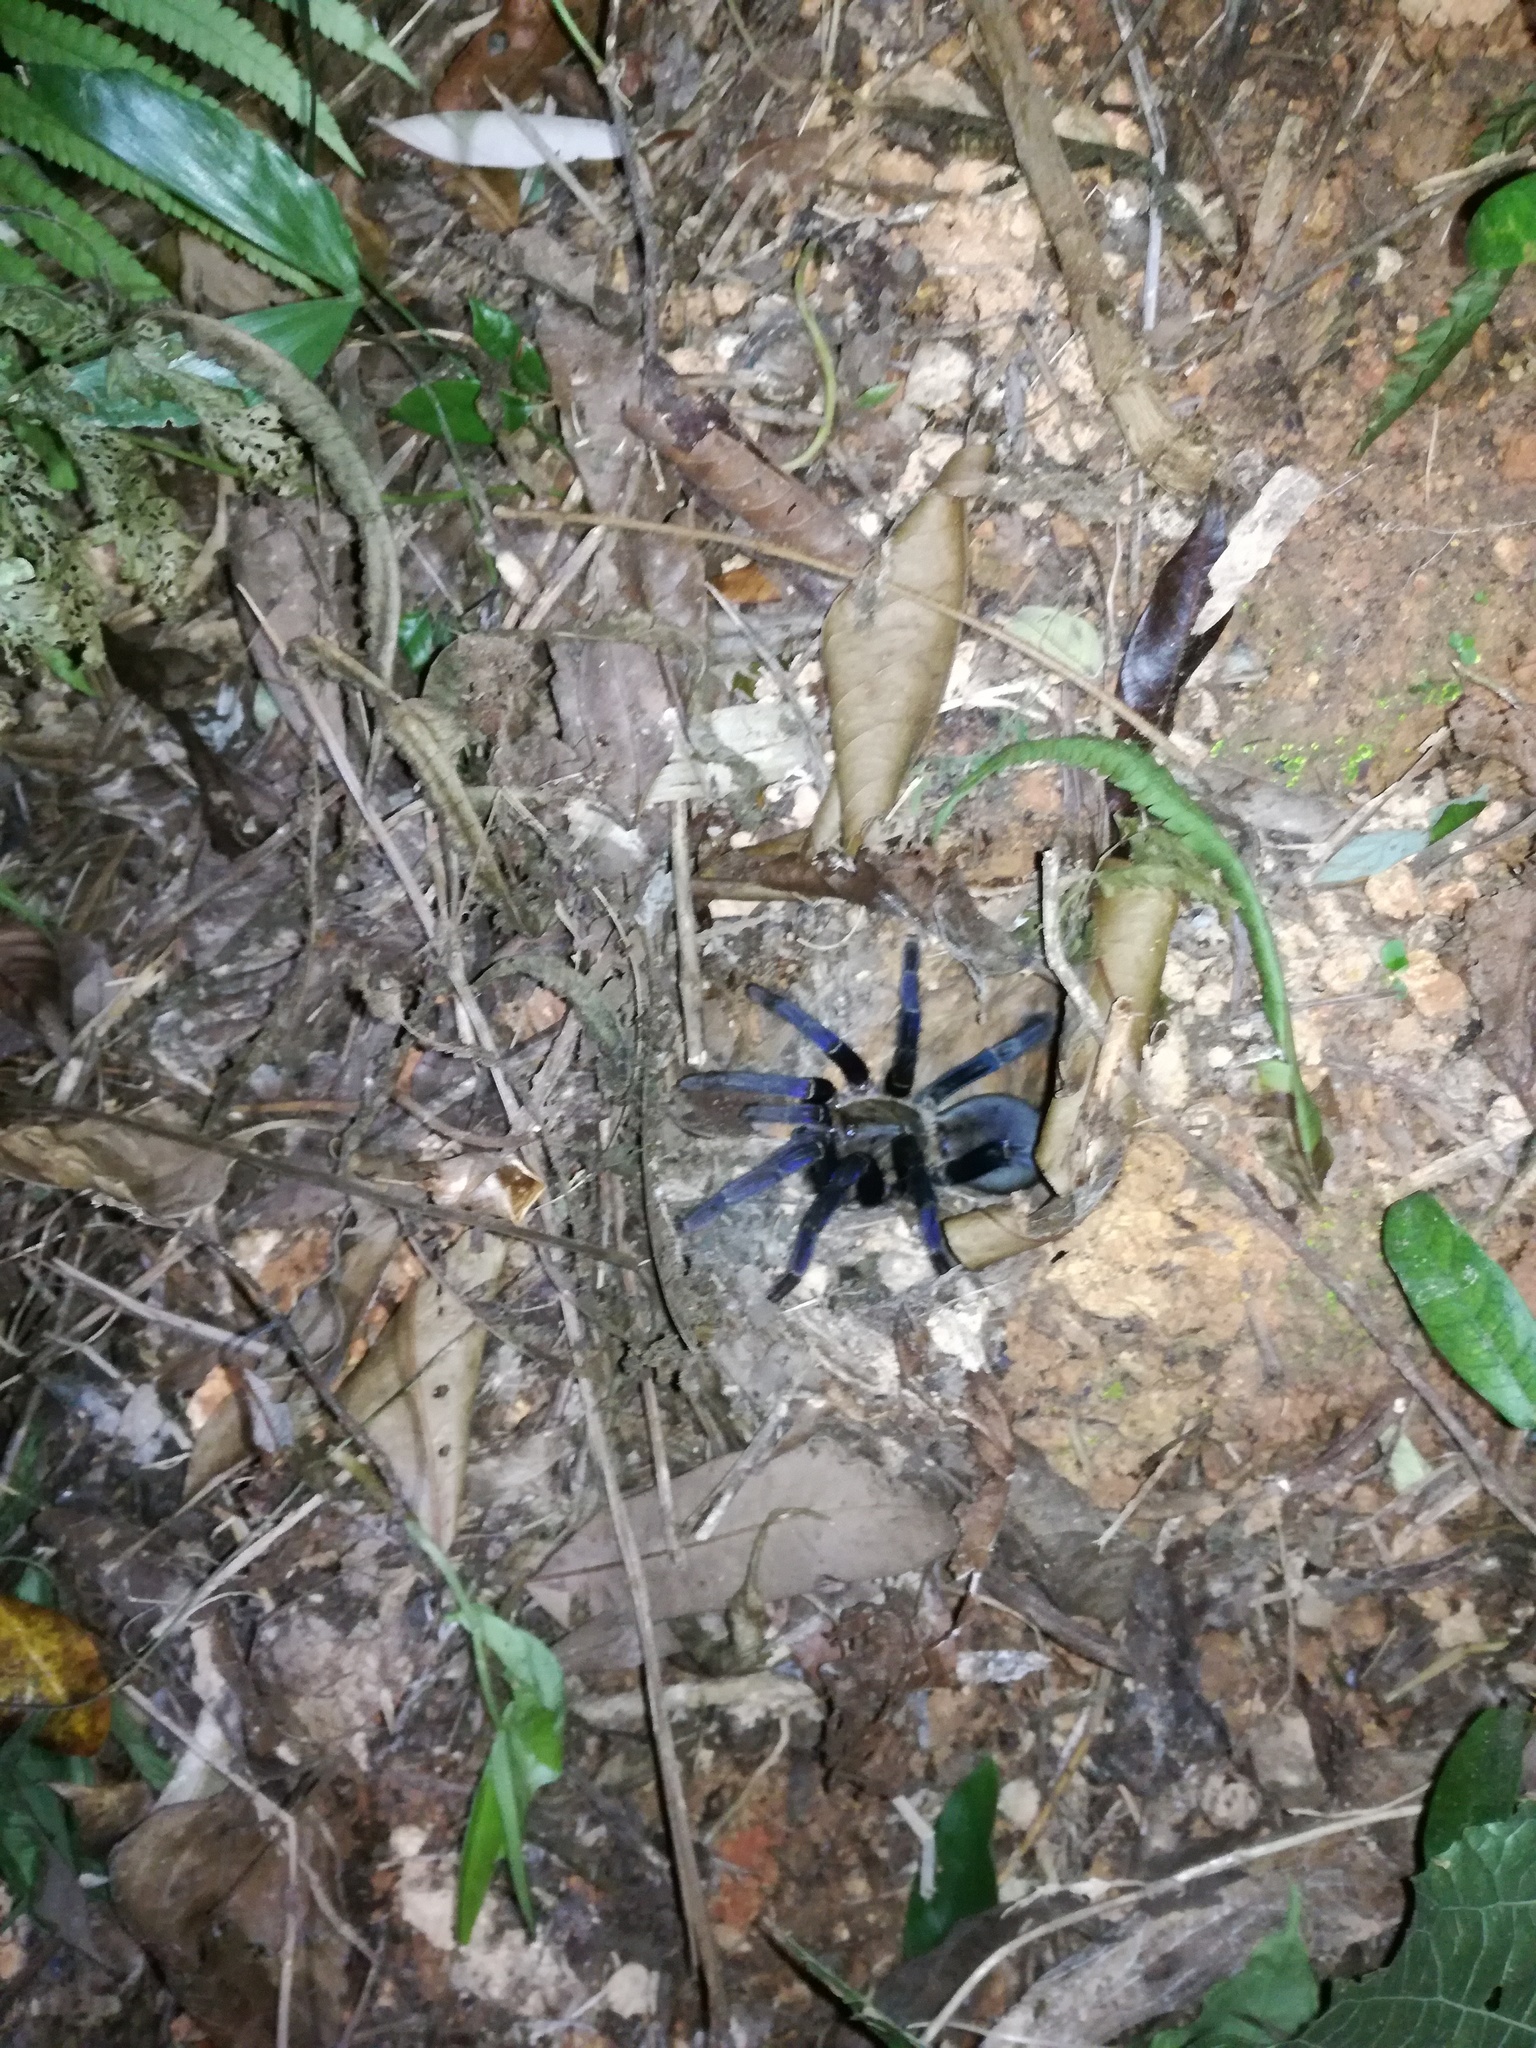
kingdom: Animalia
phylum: Arthropoda
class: Arachnida
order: Araneae
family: Theraphosidae
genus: Cyriopagopus
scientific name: Cyriopagopus lividus
